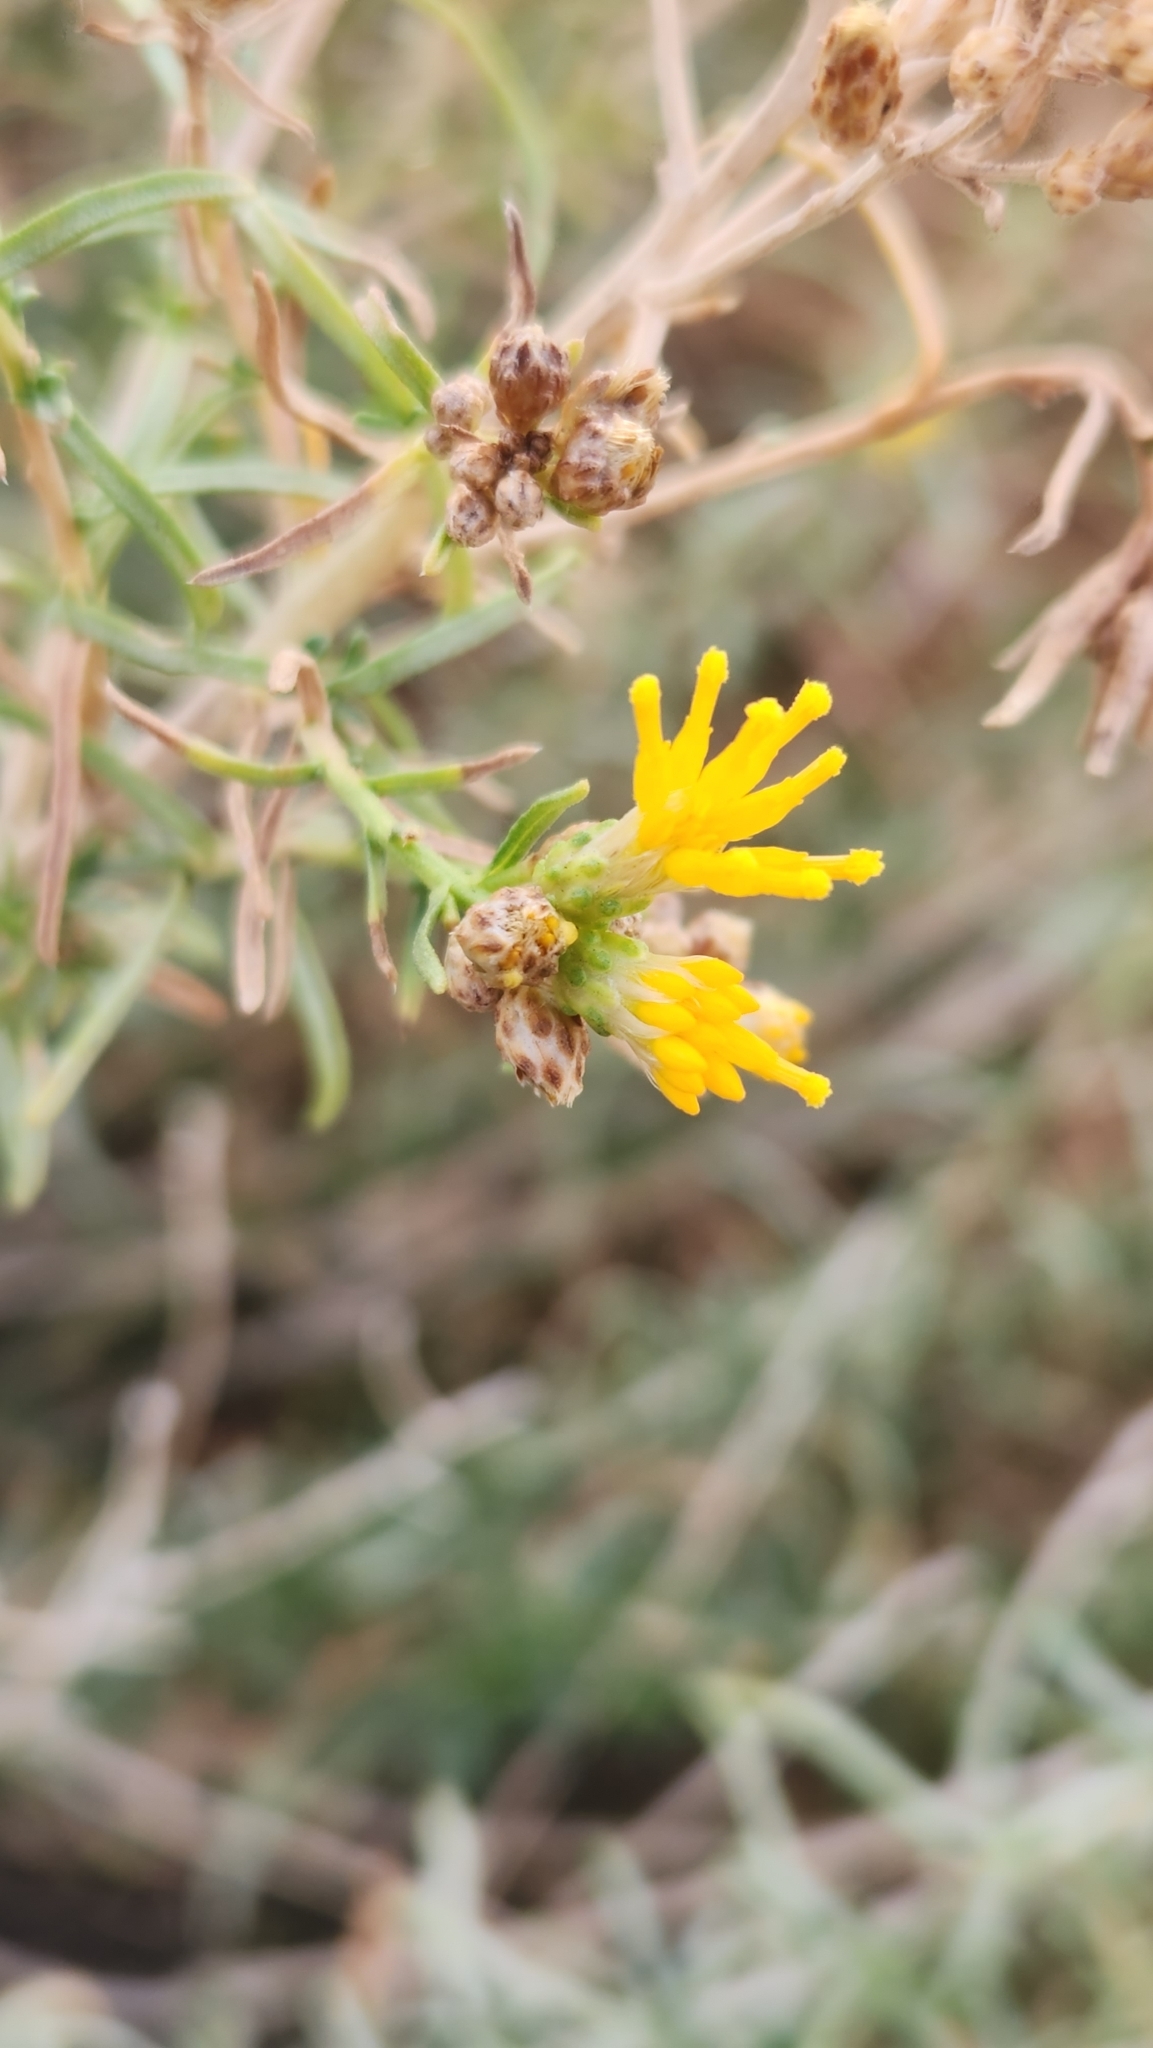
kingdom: Plantae
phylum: Tracheophyta
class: Magnoliopsida
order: Asterales
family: Asteraceae
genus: Isocoma
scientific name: Isocoma acradenia
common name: Alkali jimmyweed
